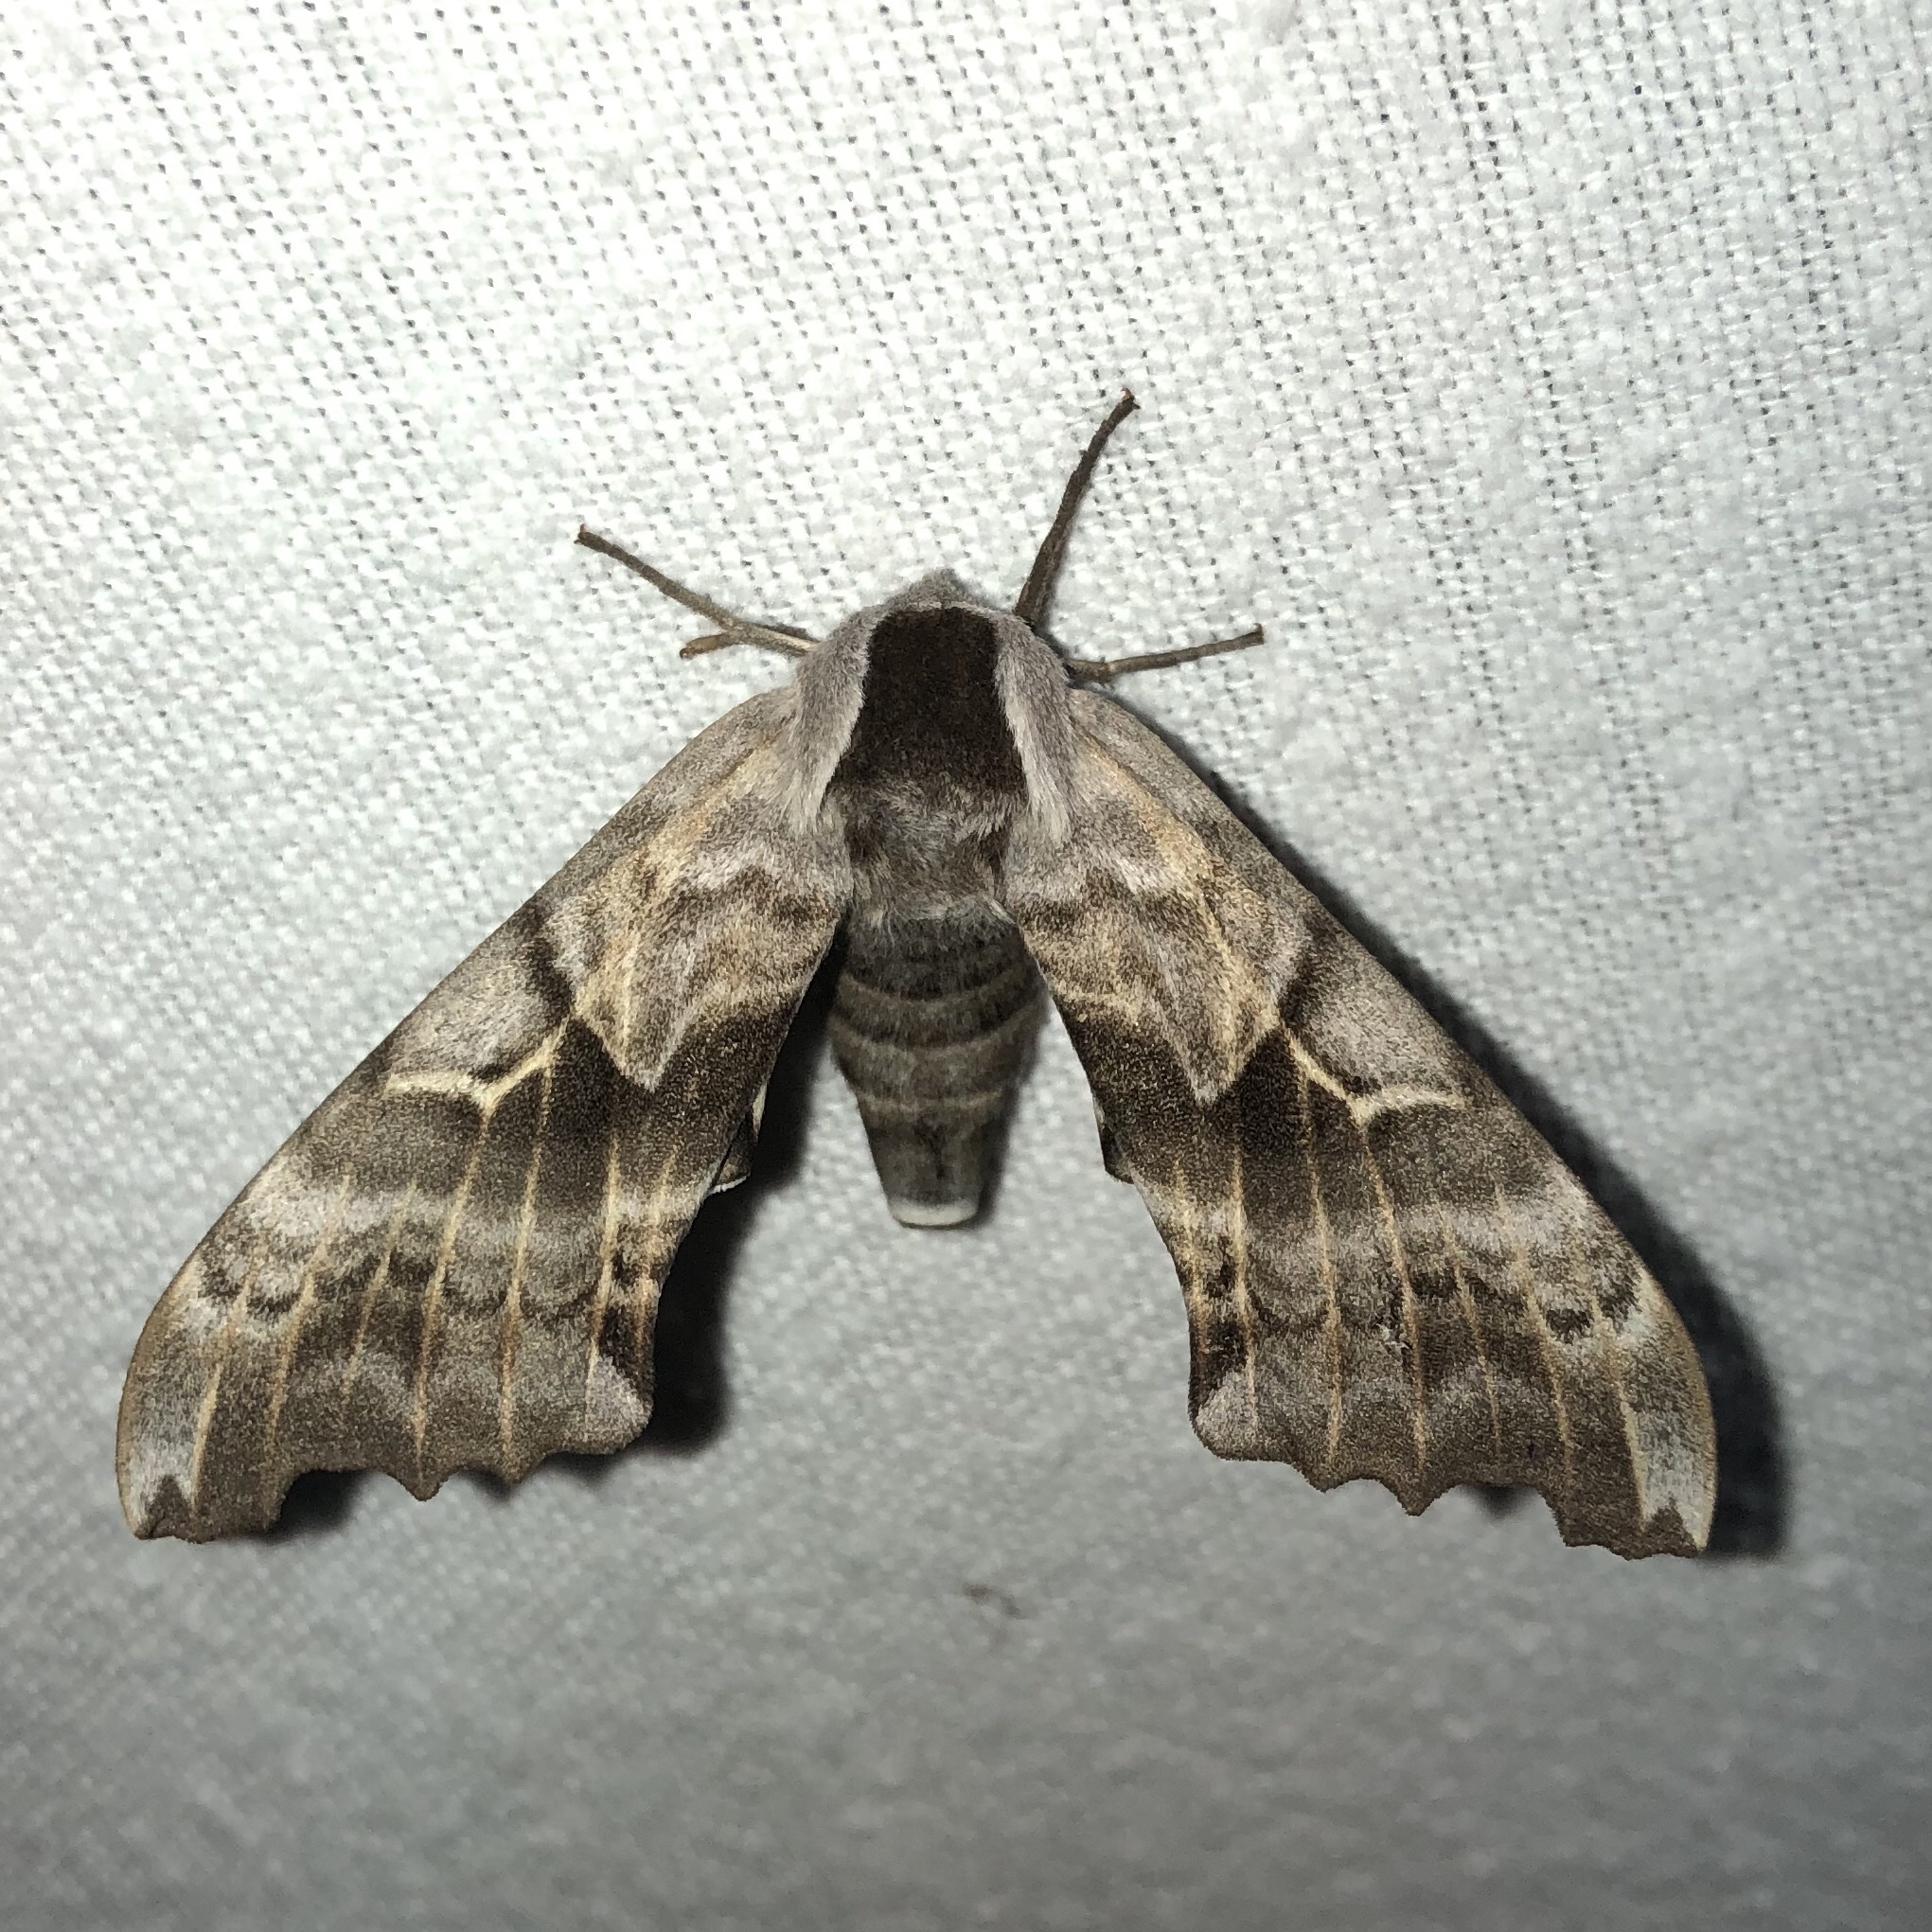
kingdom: Animalia
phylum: Arthropoda
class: Insecta
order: Lepidoptera
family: Sphingidae
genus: Smerinthus
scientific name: Smerinthus cerisyi
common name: Cerisy's sphinx moth
